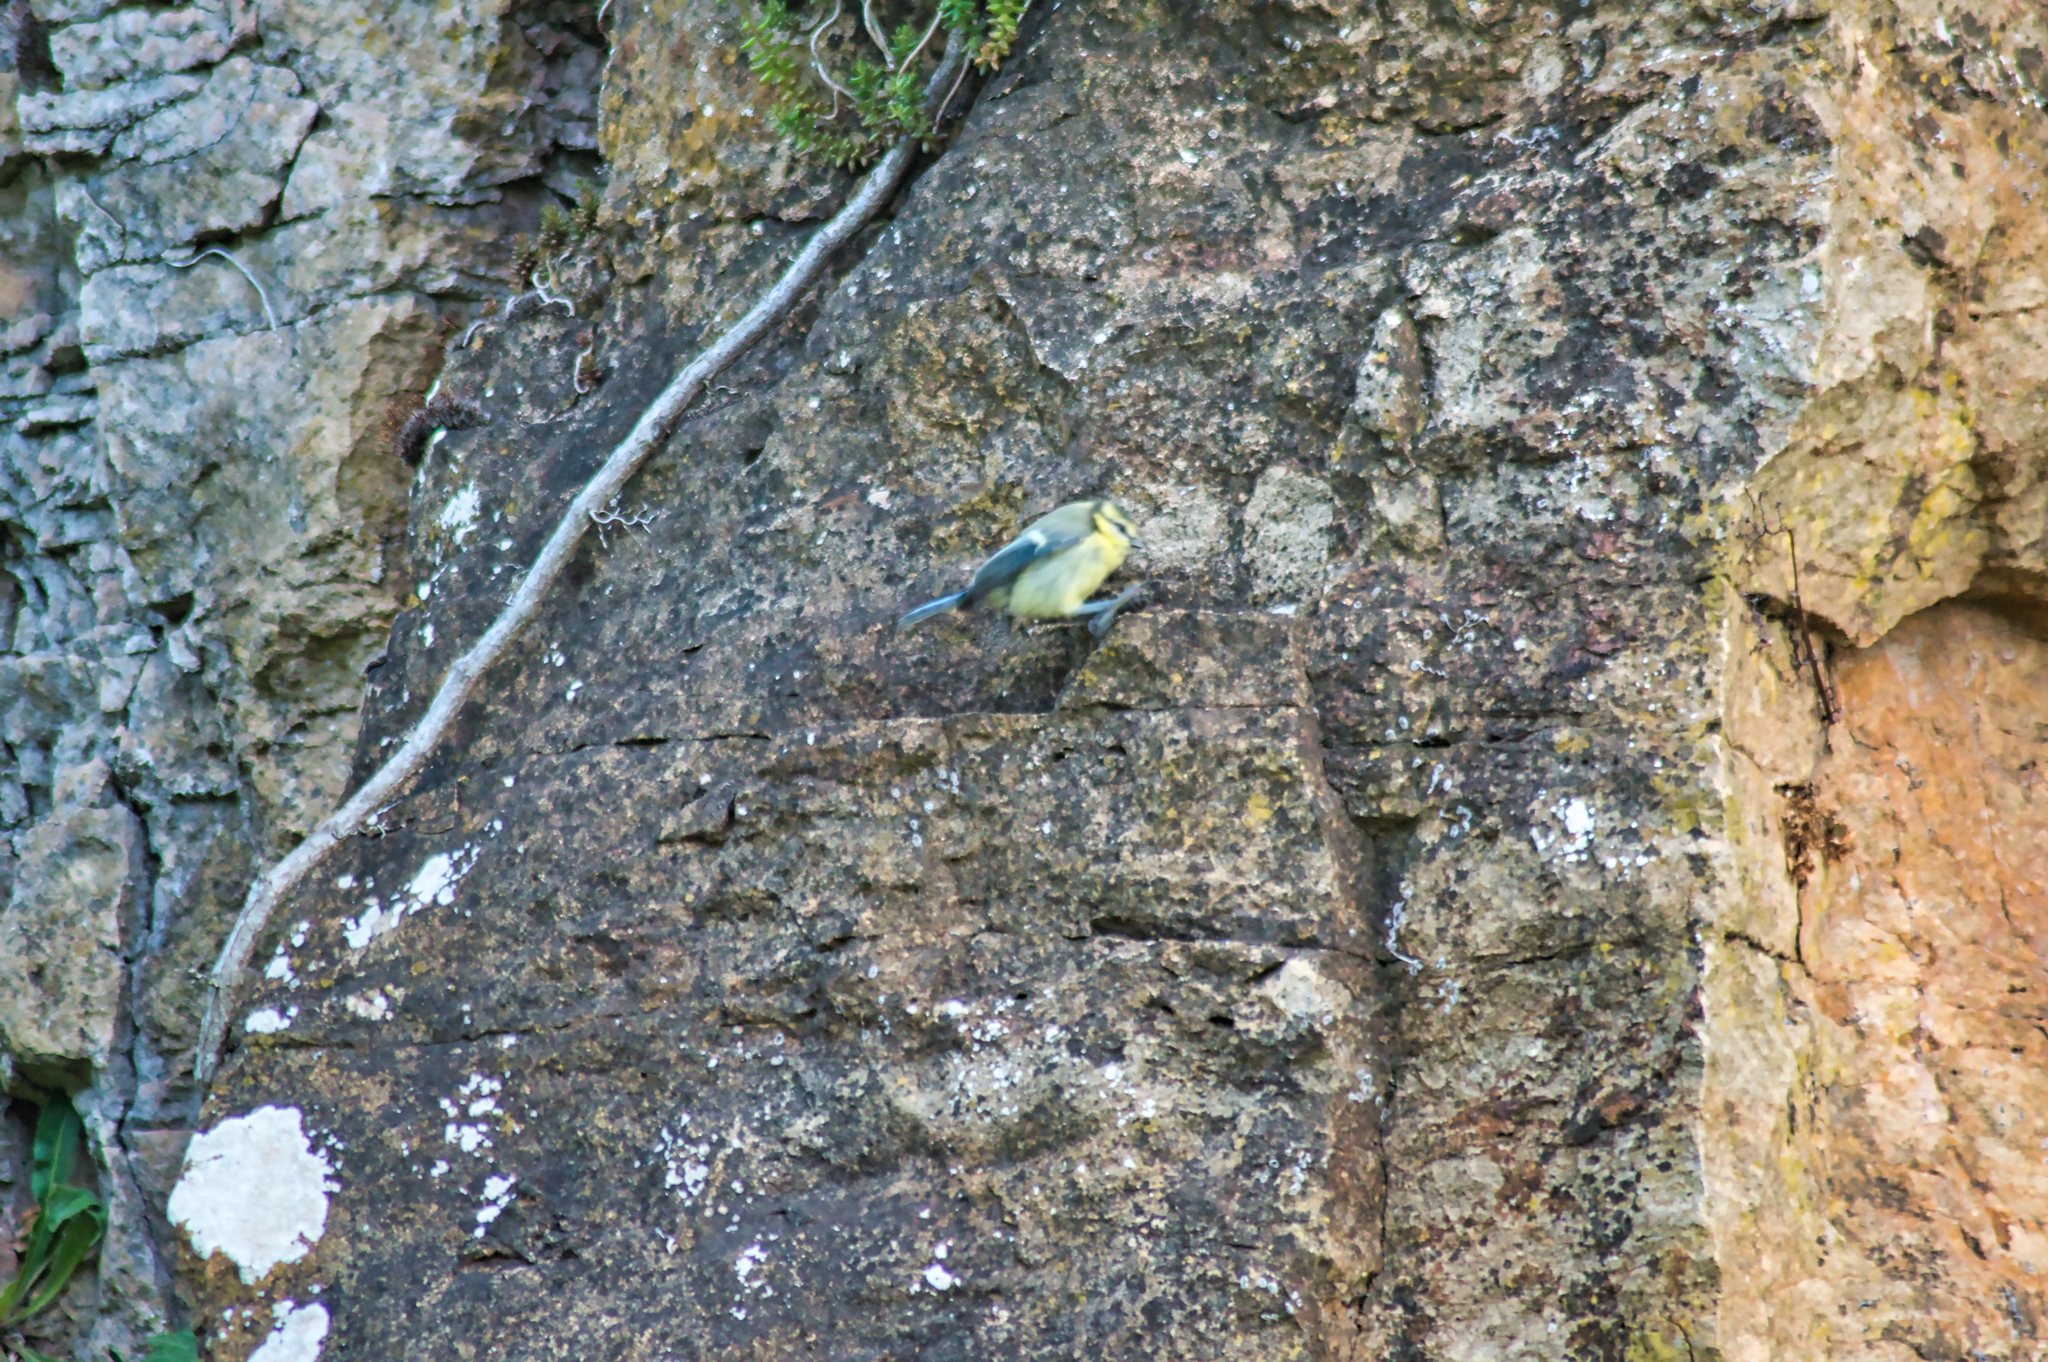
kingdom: Animalia
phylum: Chordata
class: Aves
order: Passeriformes
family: Paridae
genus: Cyanistes
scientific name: Cyanistes caeruleus
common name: Eurasian blue tit
